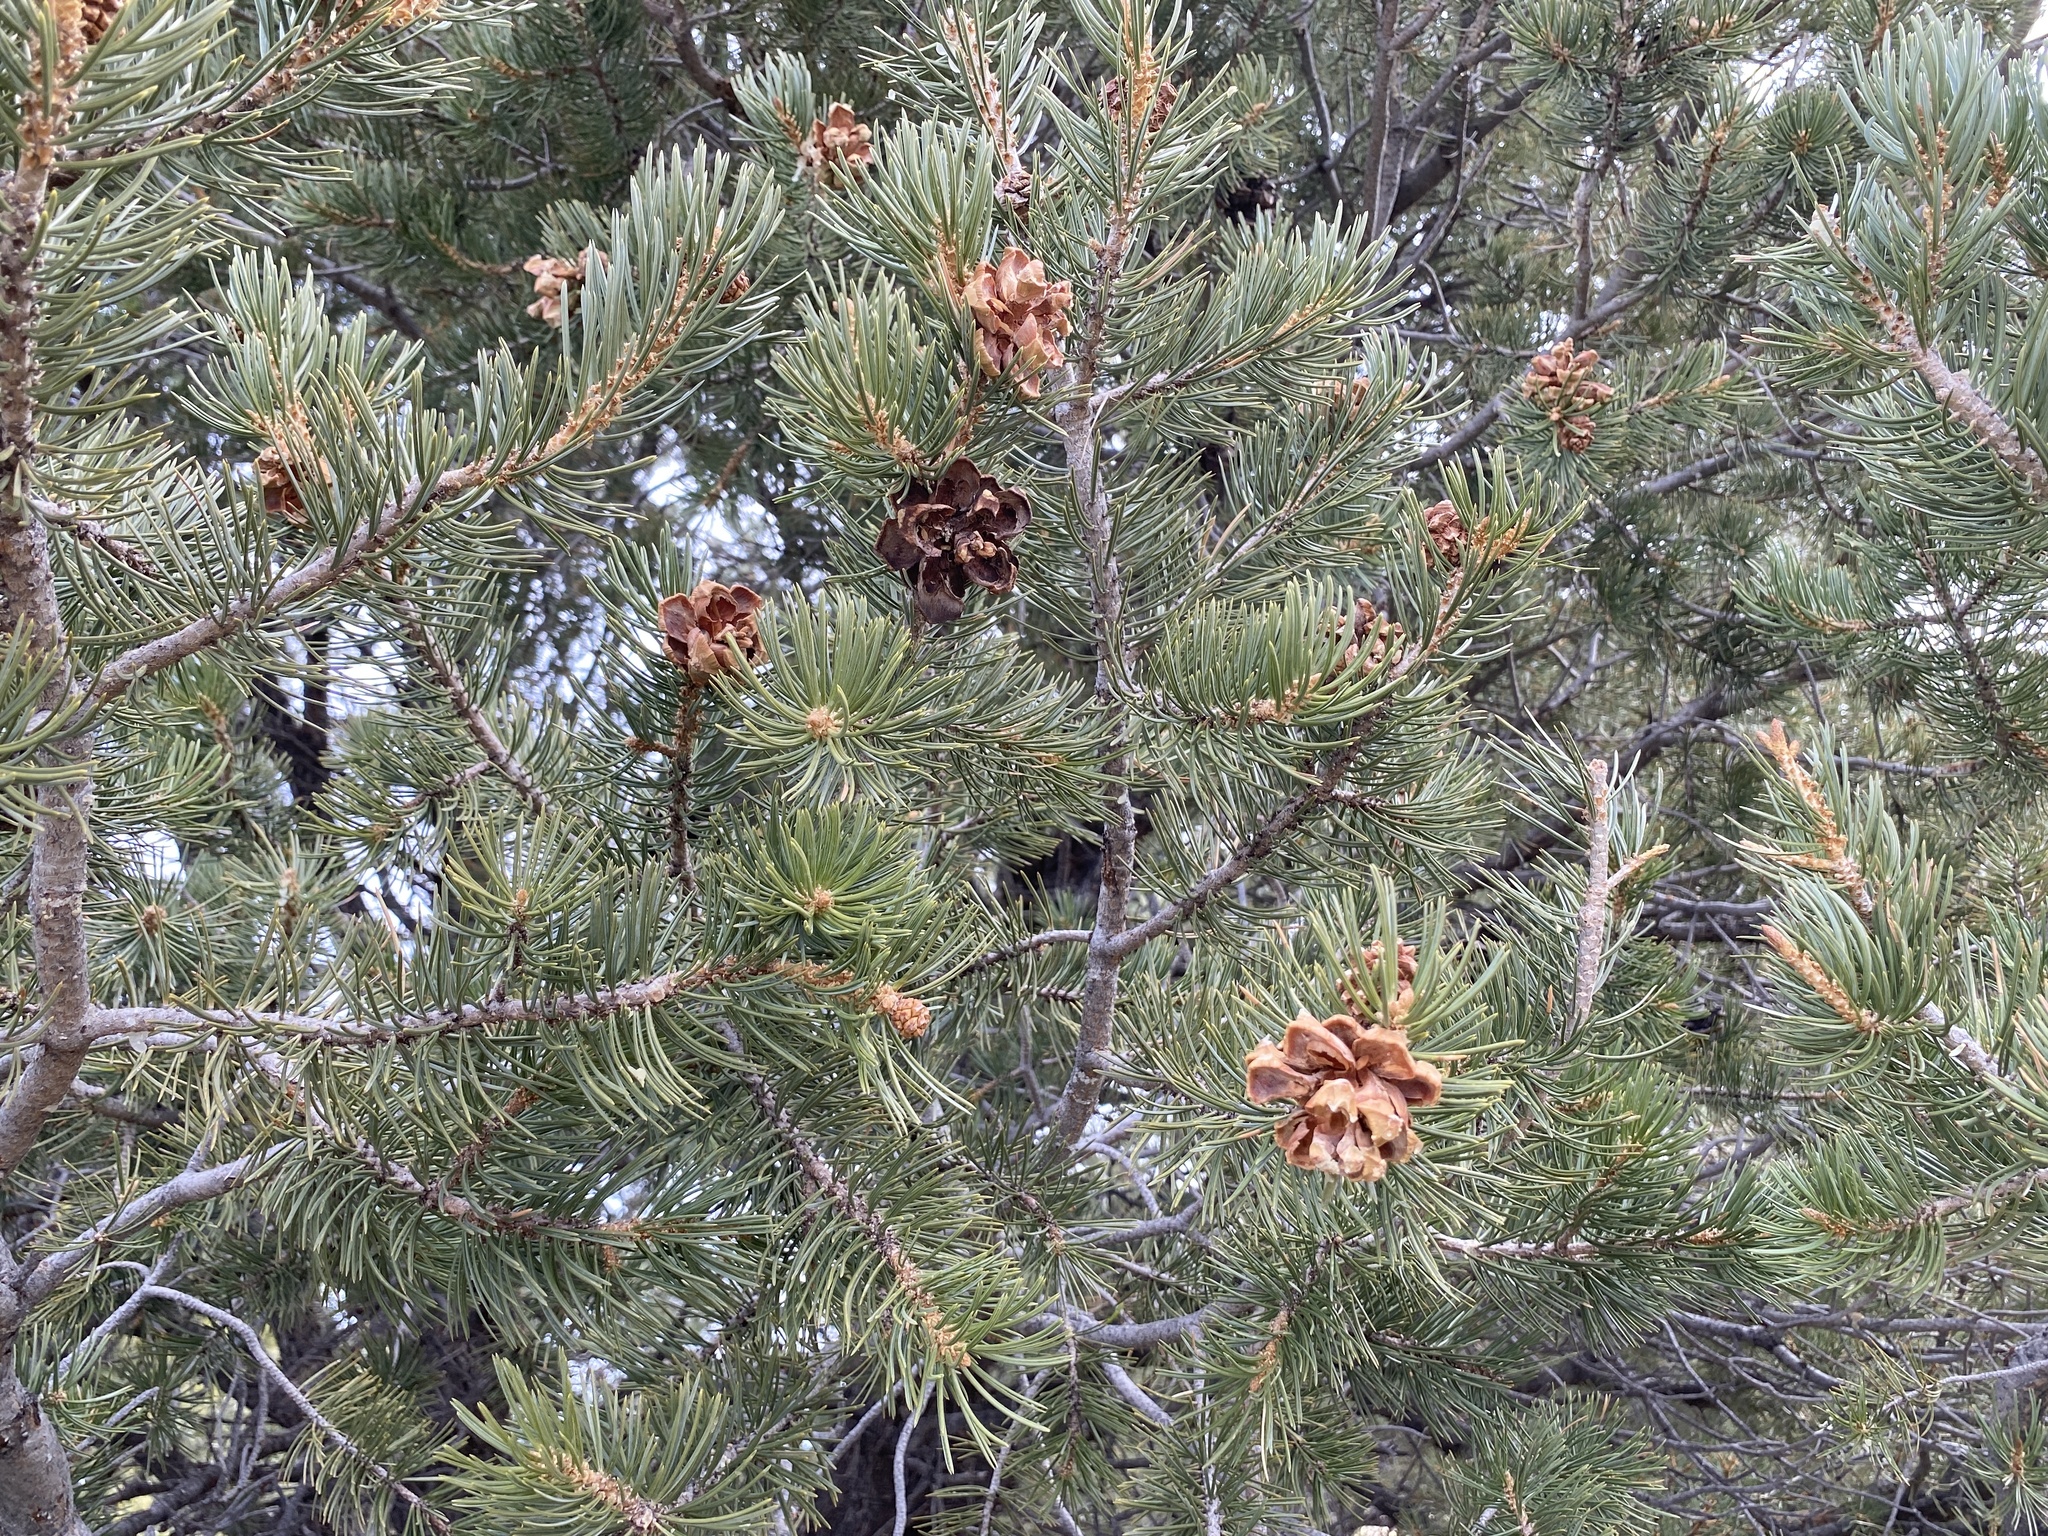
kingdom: Plantae
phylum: Tracheophyta
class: Pinopsida
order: Pinales
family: Pinaceae
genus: Pinus
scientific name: Pinus edulis
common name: Colorado pinyon
